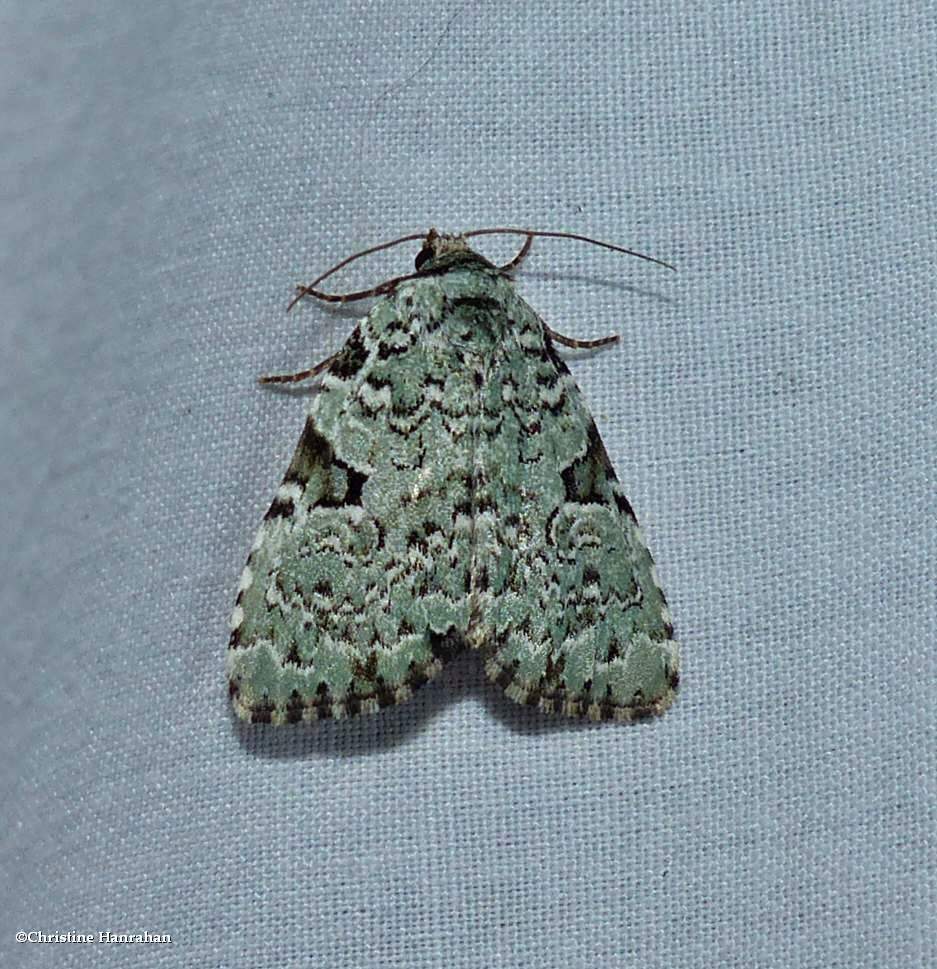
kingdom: Animalia
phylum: Arthropoda
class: Insecta
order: Lepidoptera
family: Noctuidae
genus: Leuconycta
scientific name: Leuconycta diphteroides
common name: Green leuconycta moth
